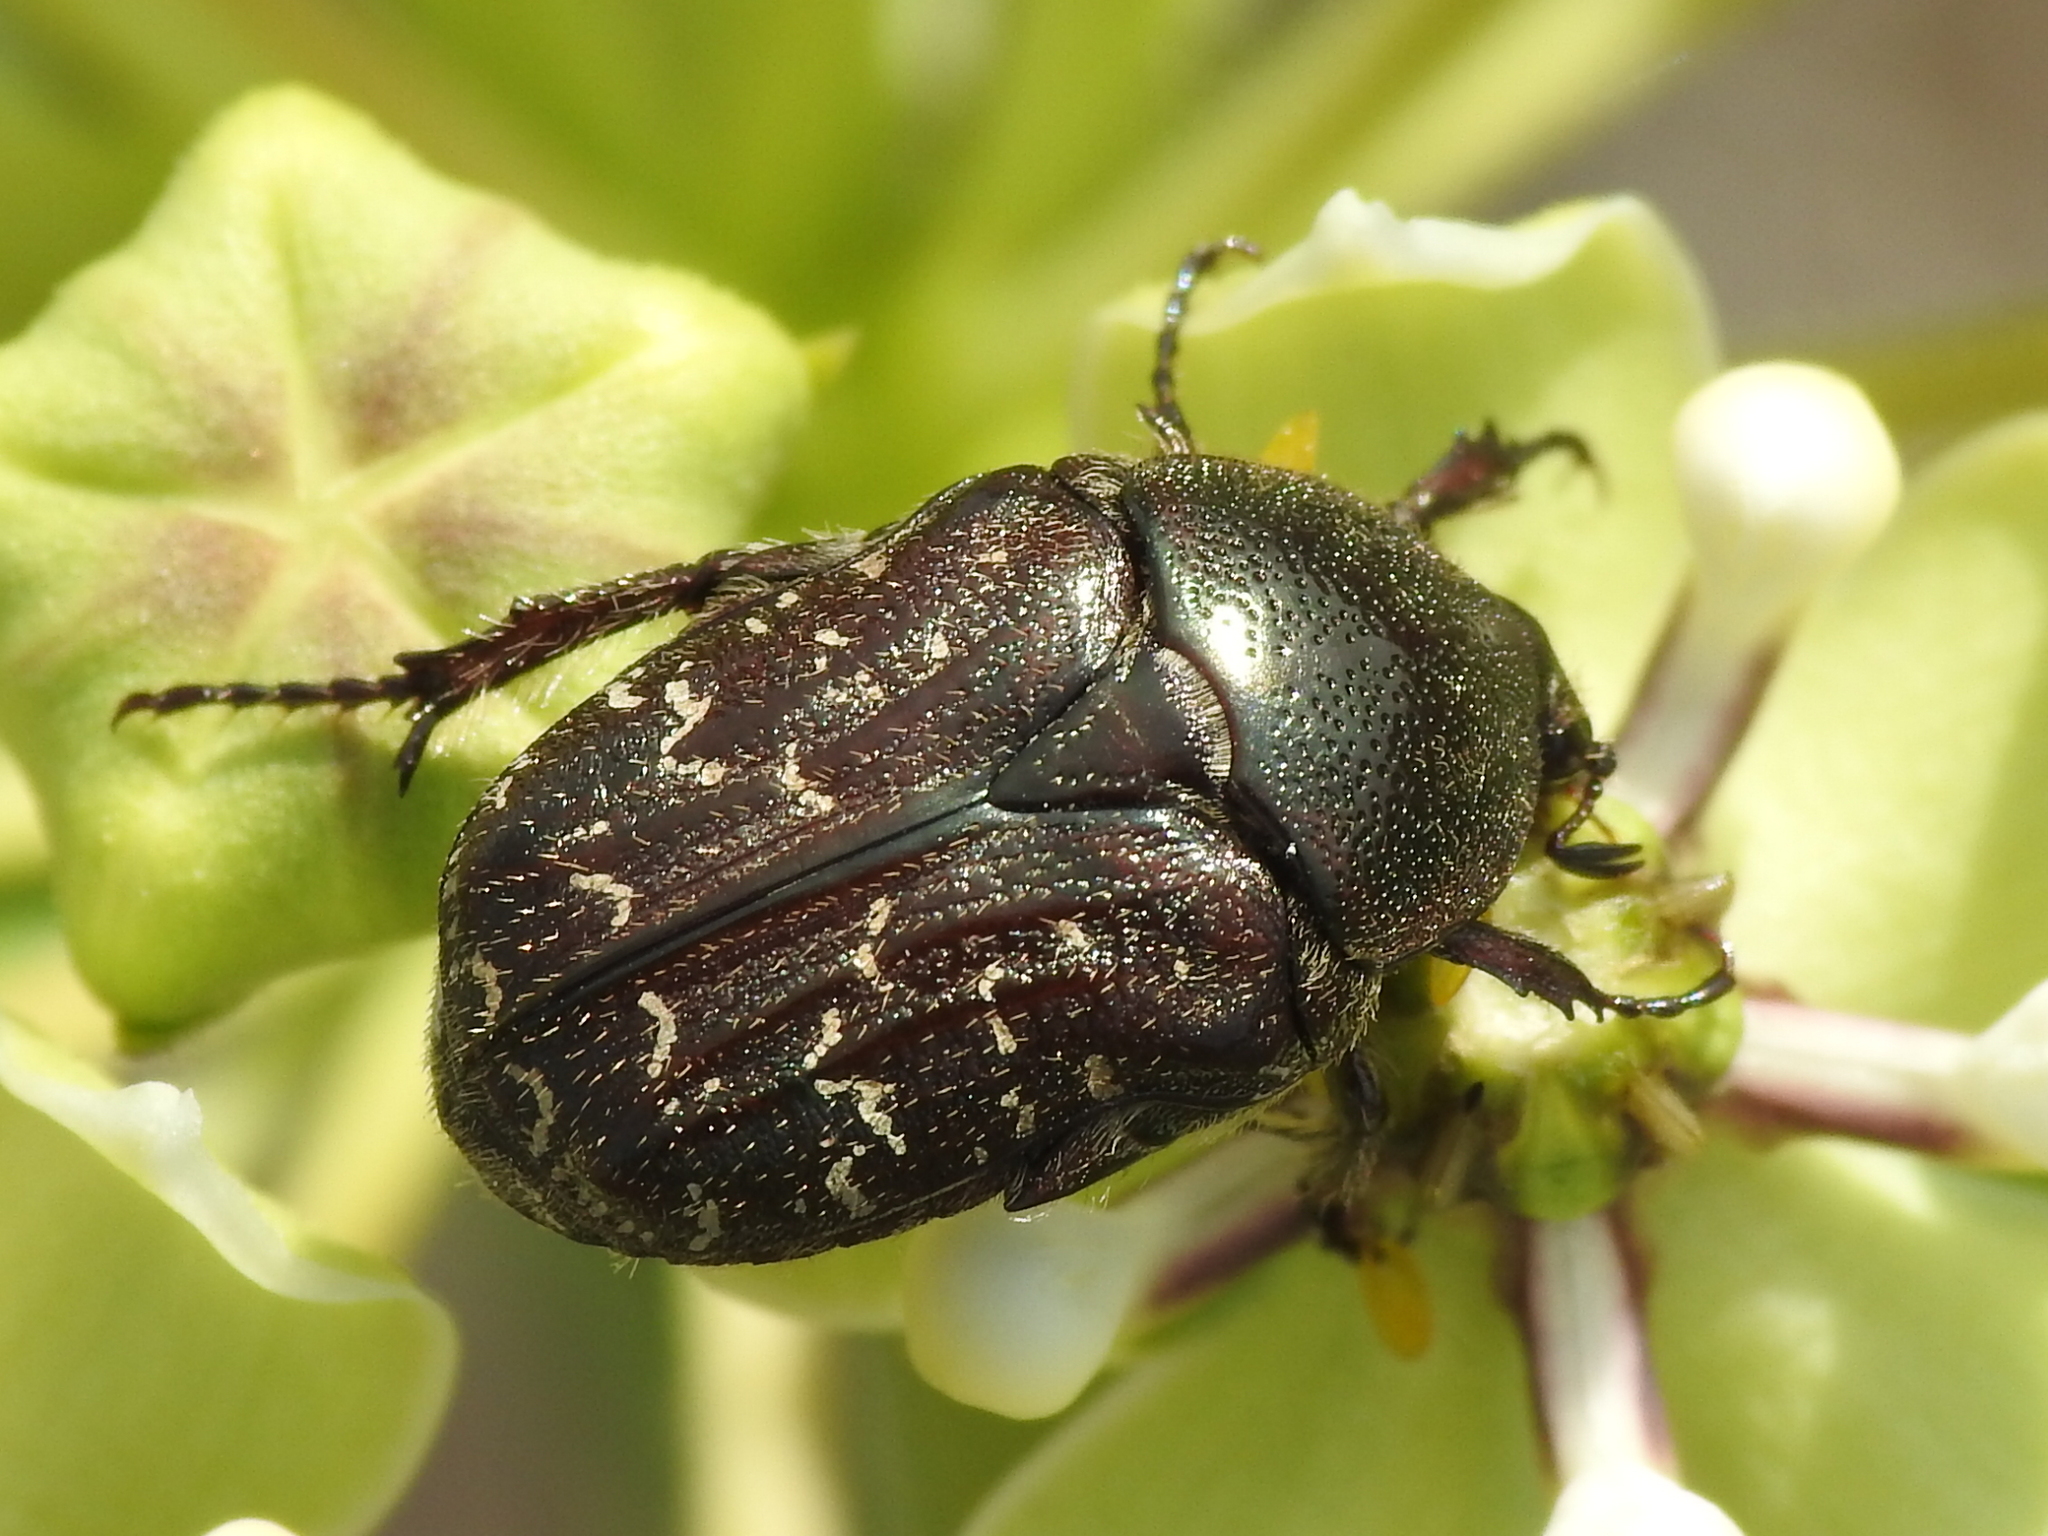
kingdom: Animalia
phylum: Arthropoda
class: Insecta
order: Coleoptera
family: Scarabaeidae
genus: Euphoria
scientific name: Euphoria sepulcralis
